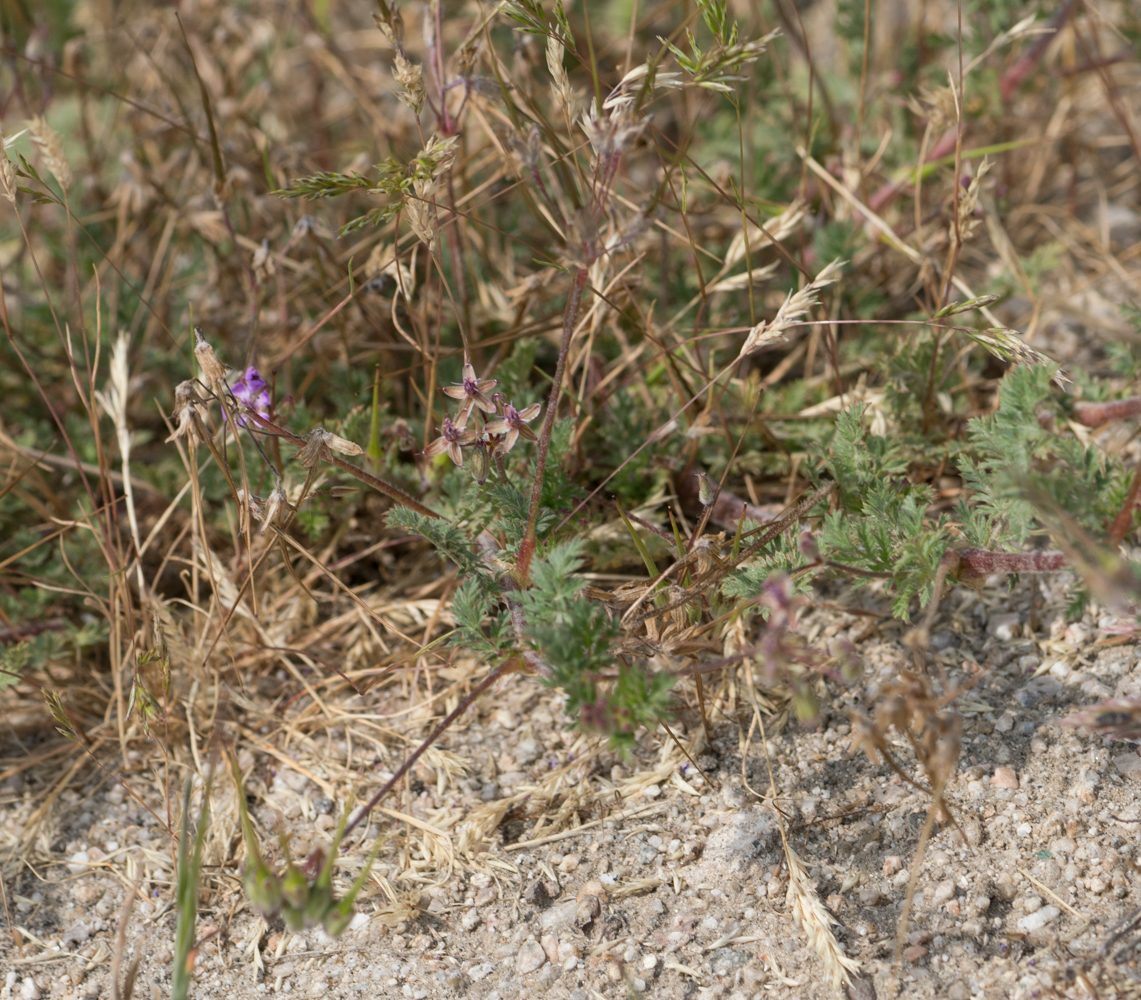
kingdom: Plantae
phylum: Tracheophyta
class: Magnoliopsida
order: Geraniales
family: Geraniaceae
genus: Erodium
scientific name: Erodium cicutarium
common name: Common stork's-bill
